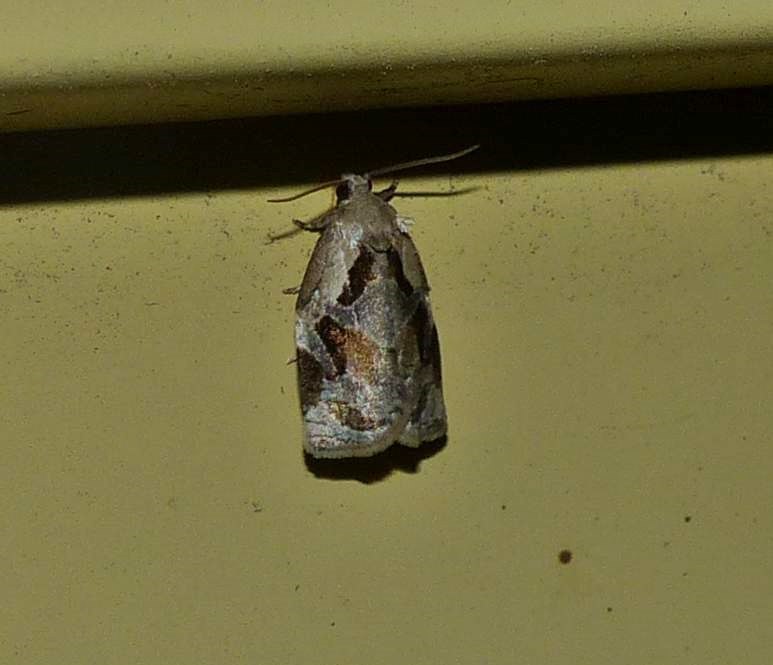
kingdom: Animalia
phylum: Arthropoda
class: Insecta
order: Lepidoptera
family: Tortricidae
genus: Archips
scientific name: Archips grisea
